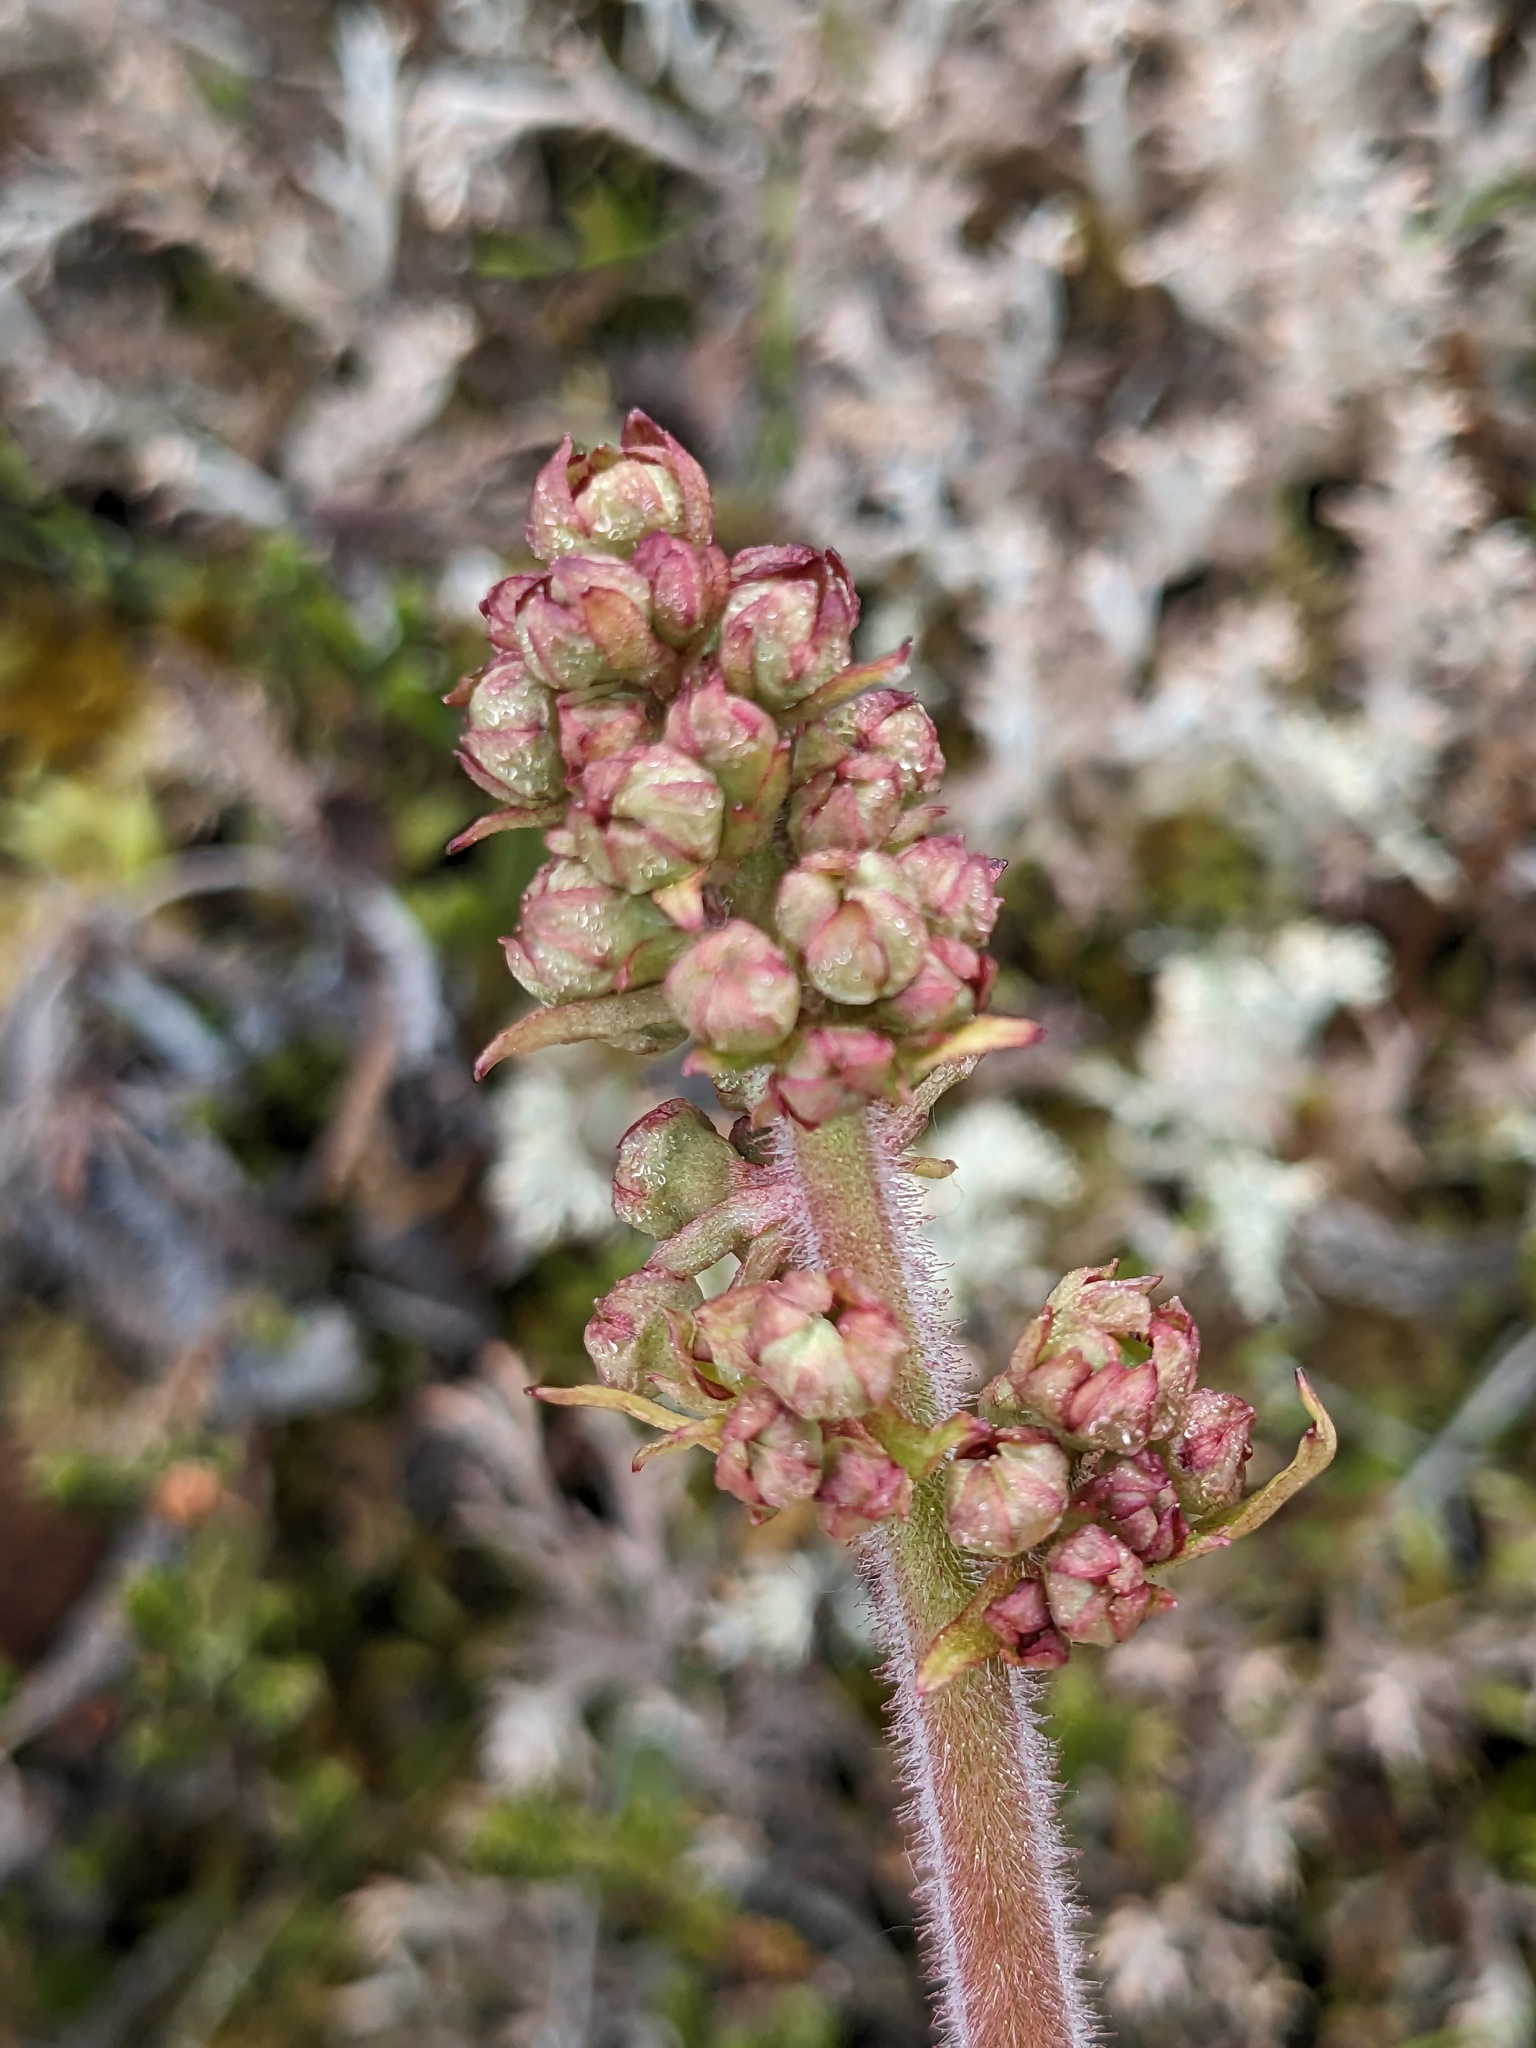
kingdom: Plantae
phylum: Tracheophyta
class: Magnoliopsida
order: Saxifragales
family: Saxifragaceae
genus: Micranthes
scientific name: Micranthes hieraciifolia
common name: Hawkweed-leaved saxifrage
